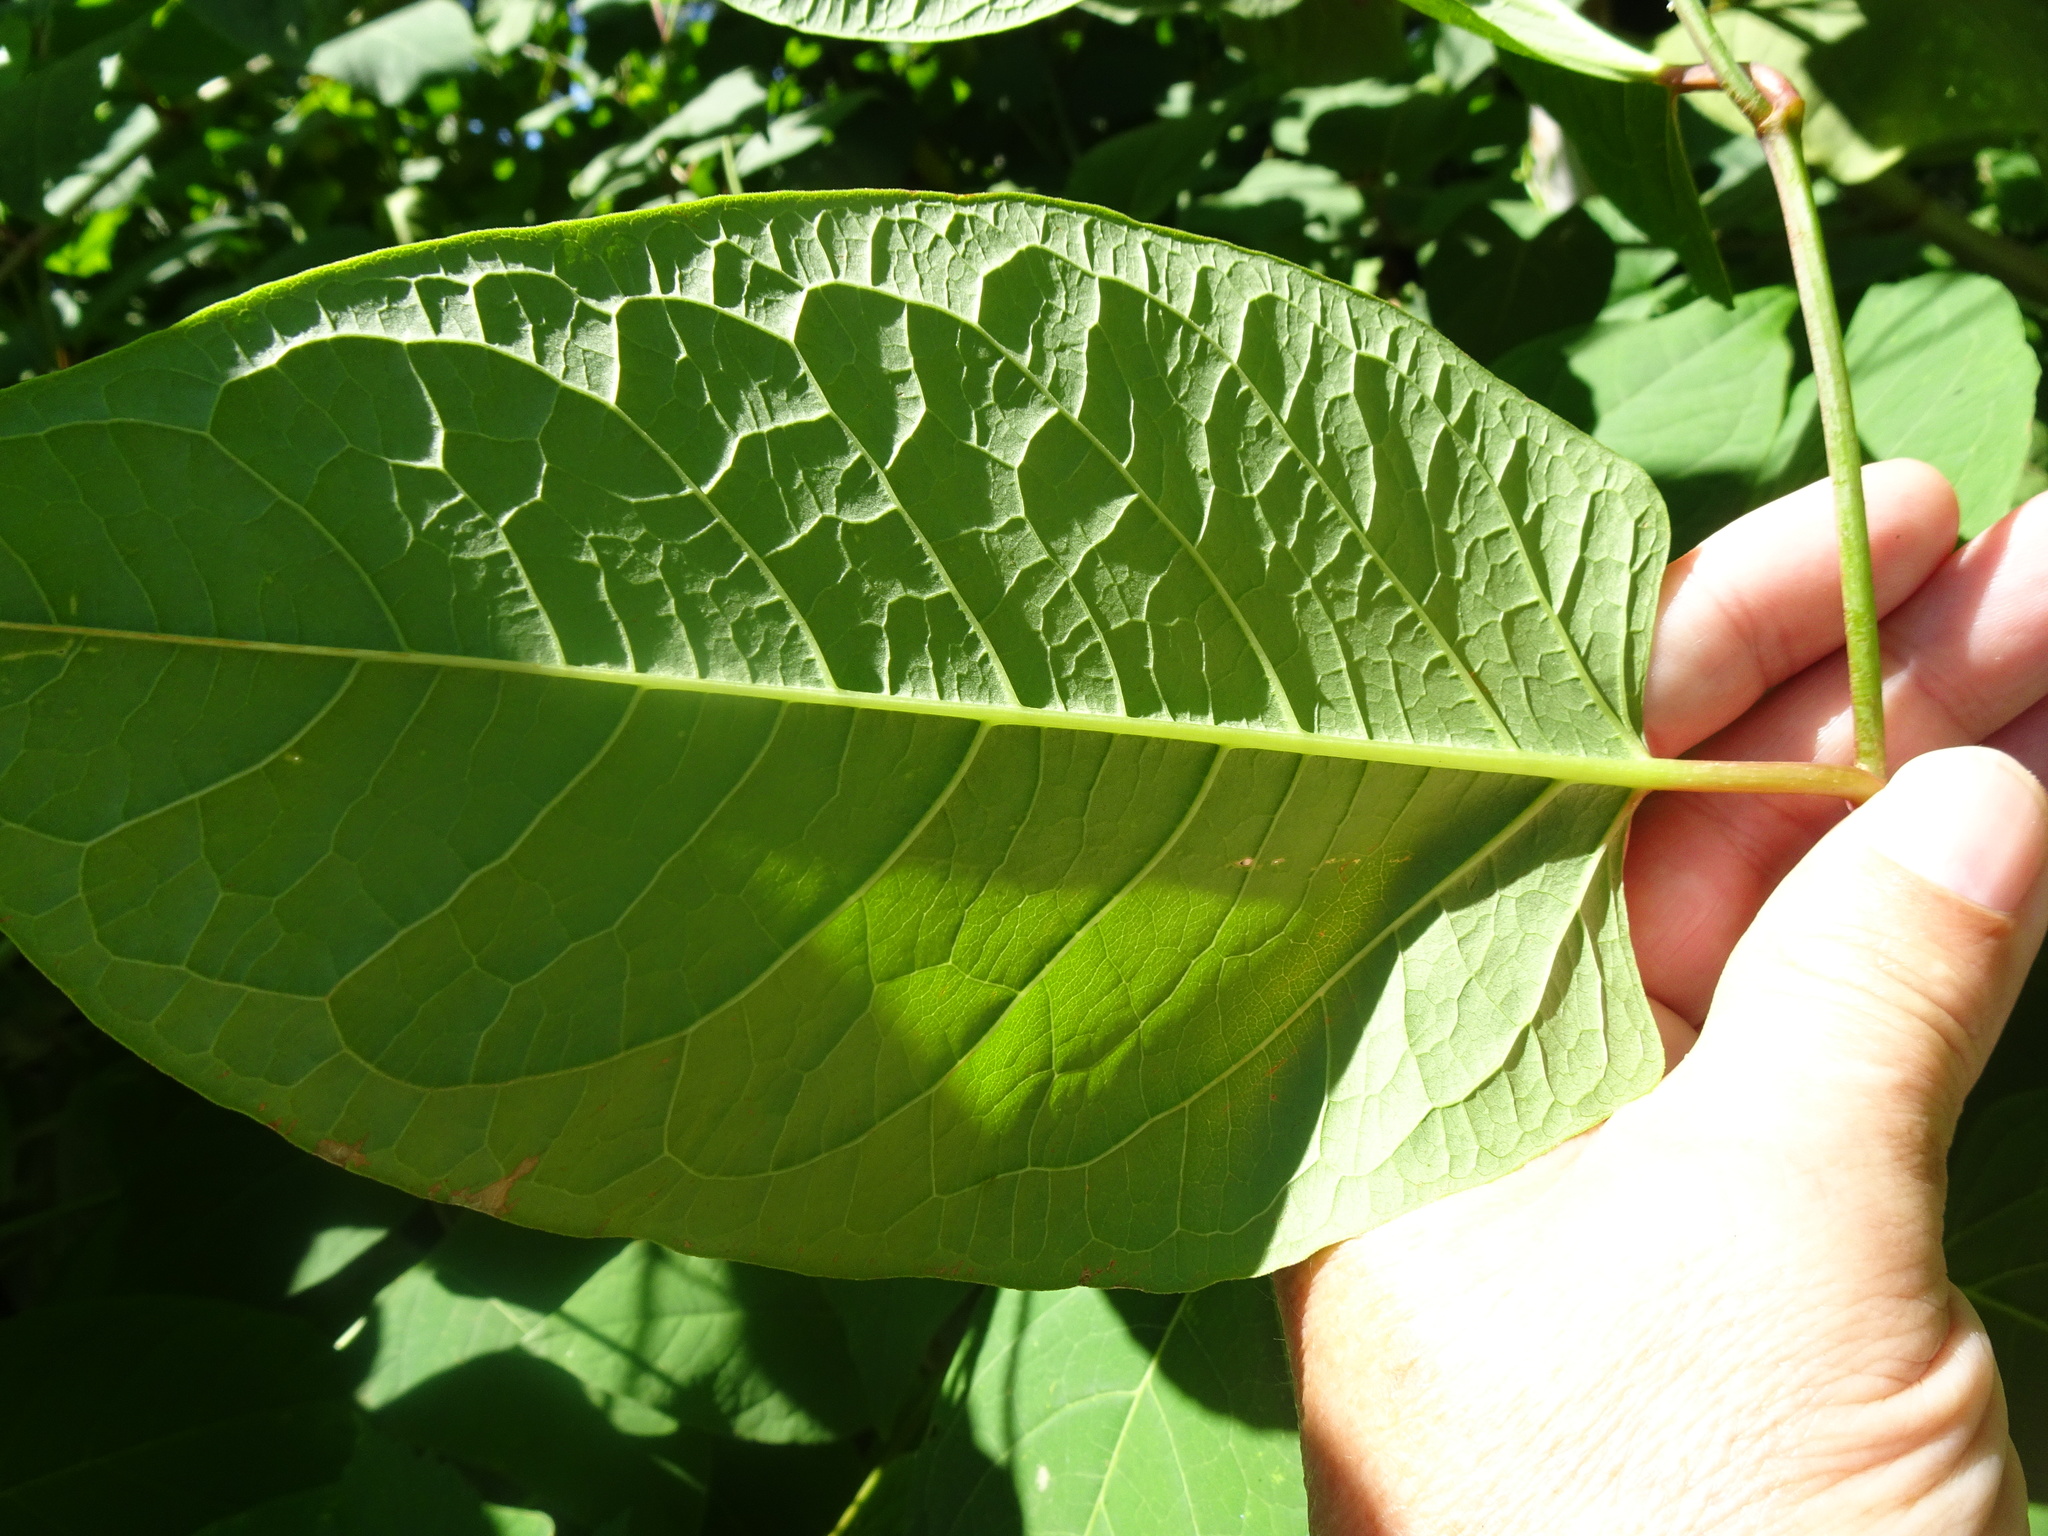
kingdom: Plantae
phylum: Tracheophyta
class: Magnoliopsida
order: Caryophyllales
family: Polygonaceae
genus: Reynoutria
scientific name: Reynoutria bohemica
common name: Bohemian knotweed
